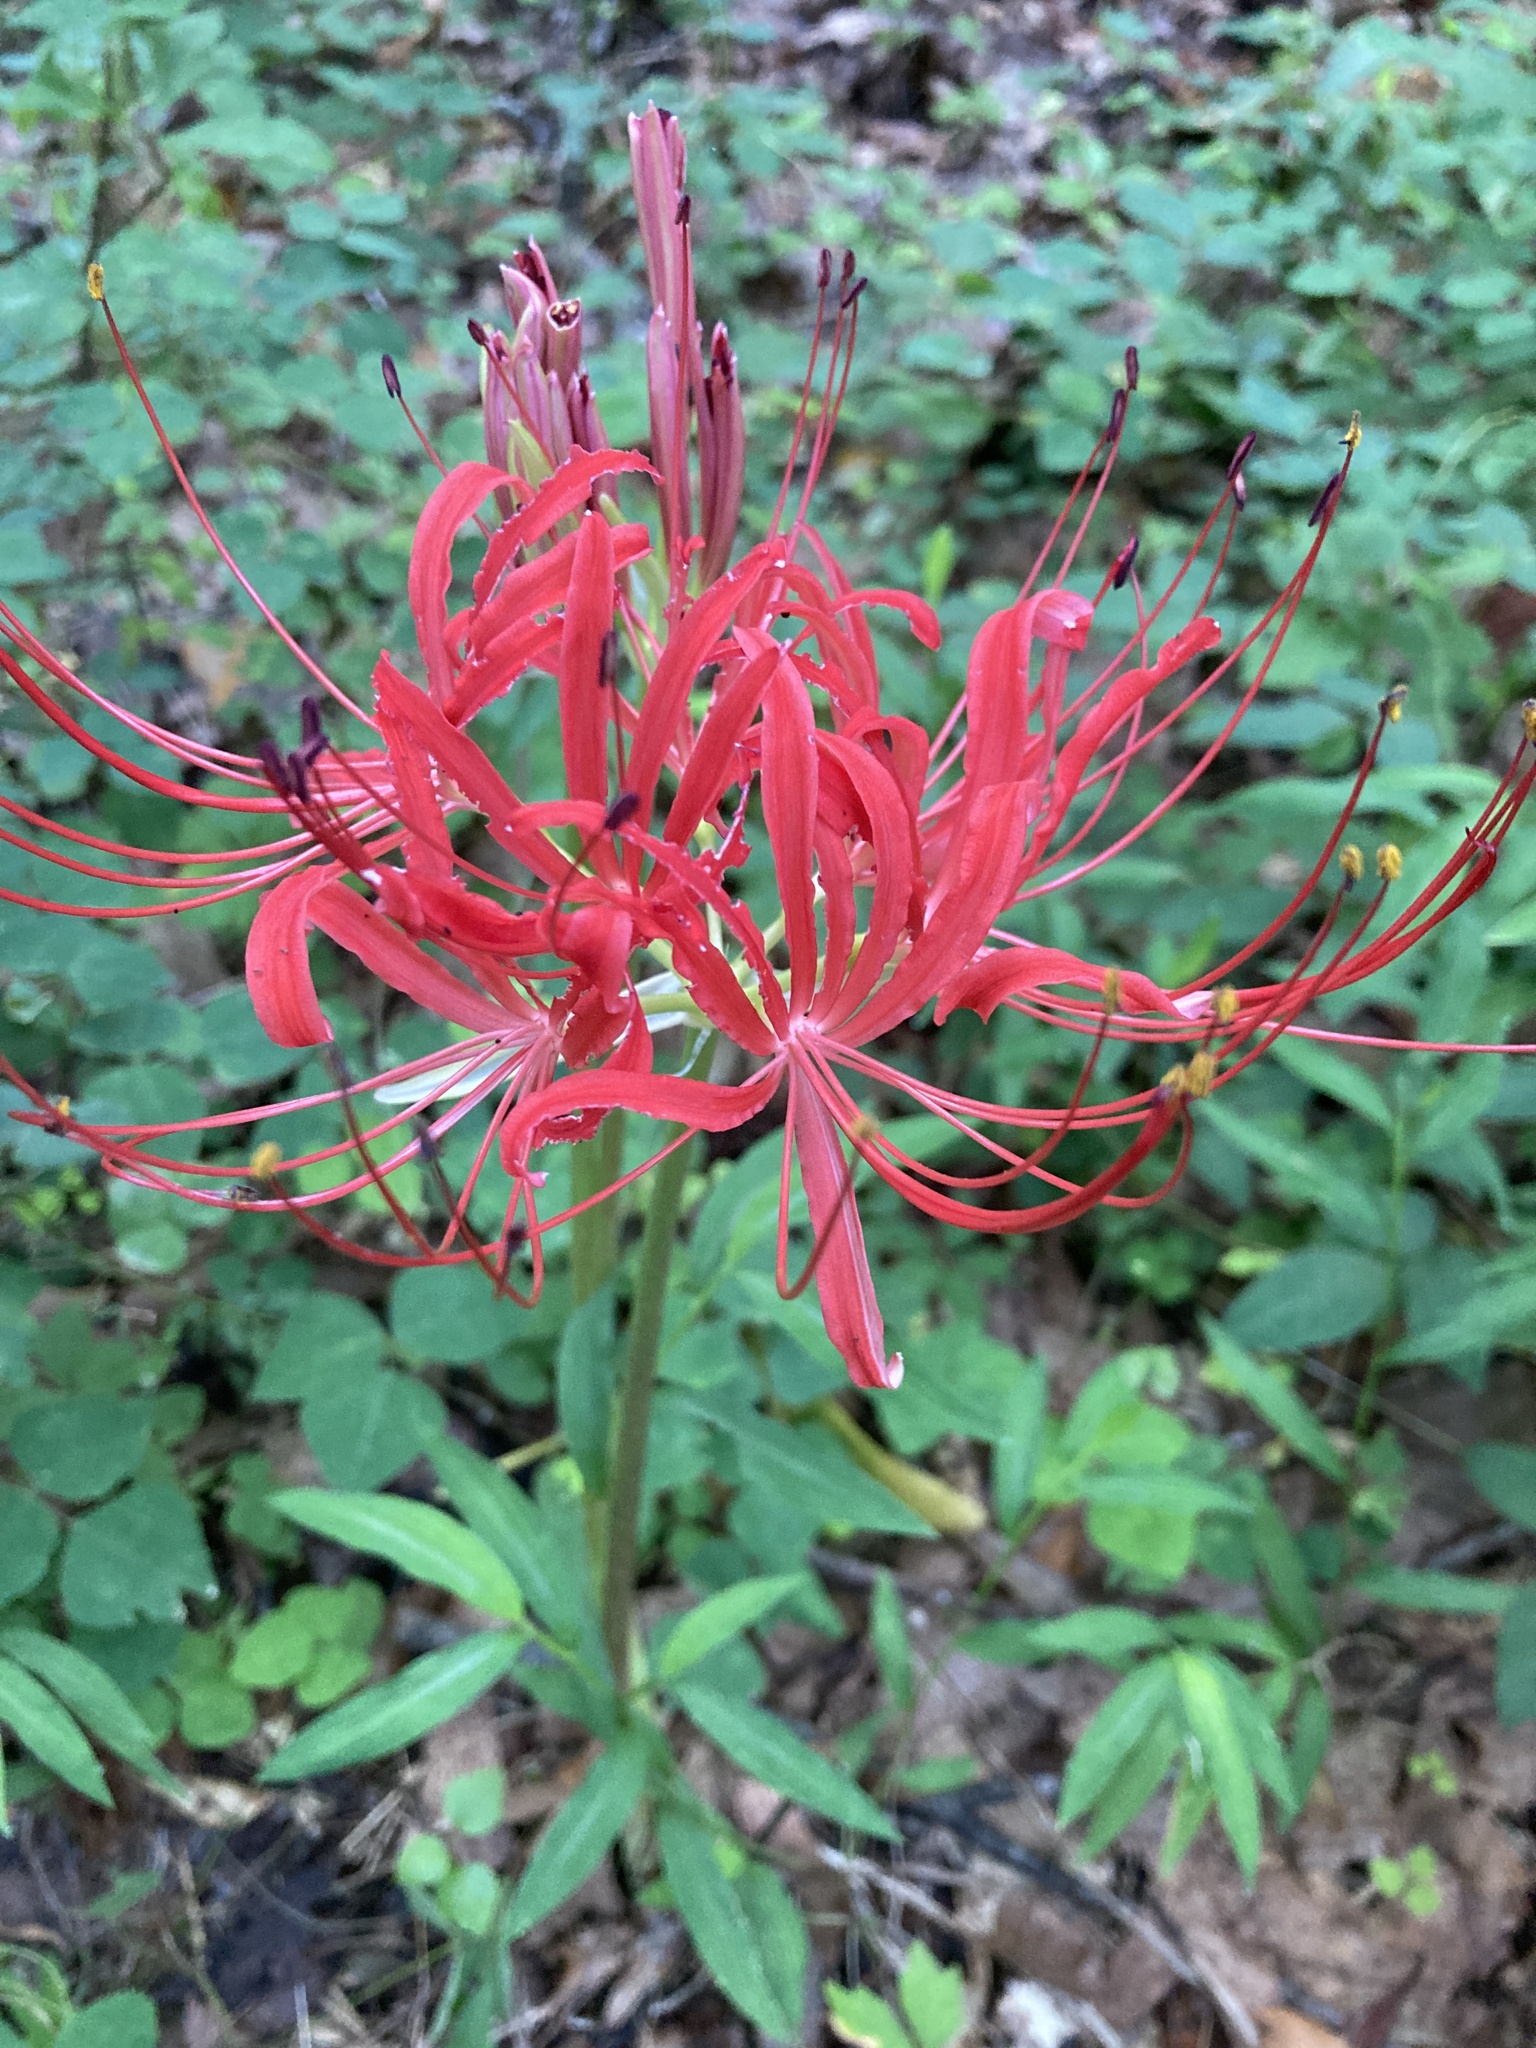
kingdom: Plantae
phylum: Tracheophyta
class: Liliopsida
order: Asparagales
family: Amaryllidaceae
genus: Lycoris
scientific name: Lycoris radiata
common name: Red spider lily
